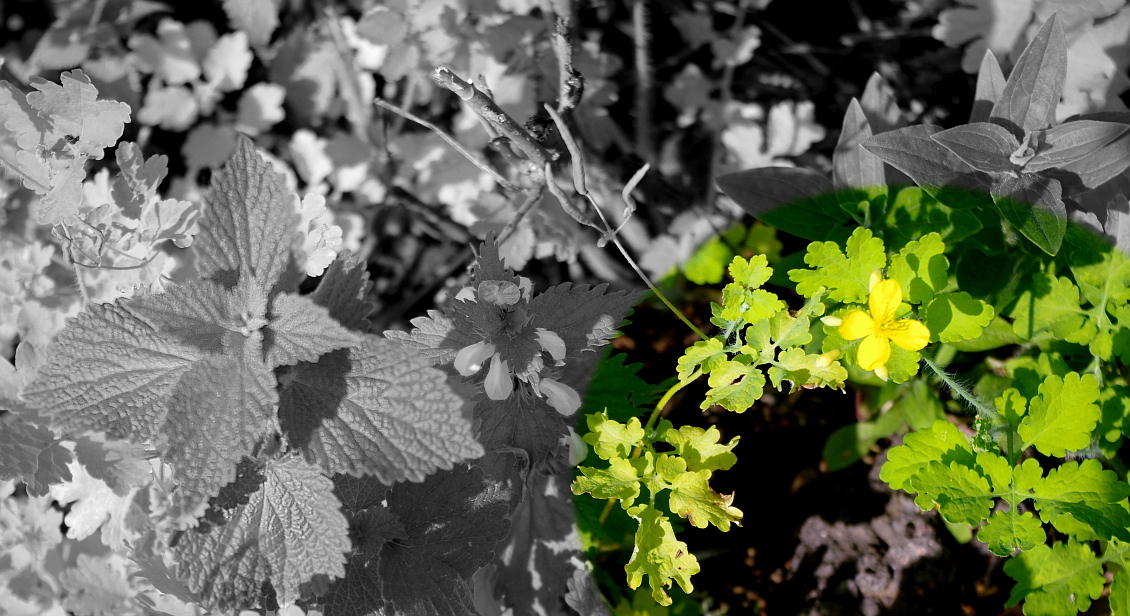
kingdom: Plantae
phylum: Tracheophyta
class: Magnoliopsida
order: Ranunculales
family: Papaveraceae
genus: Chelidonium
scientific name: Chelidonium majus
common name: Greater celandine
